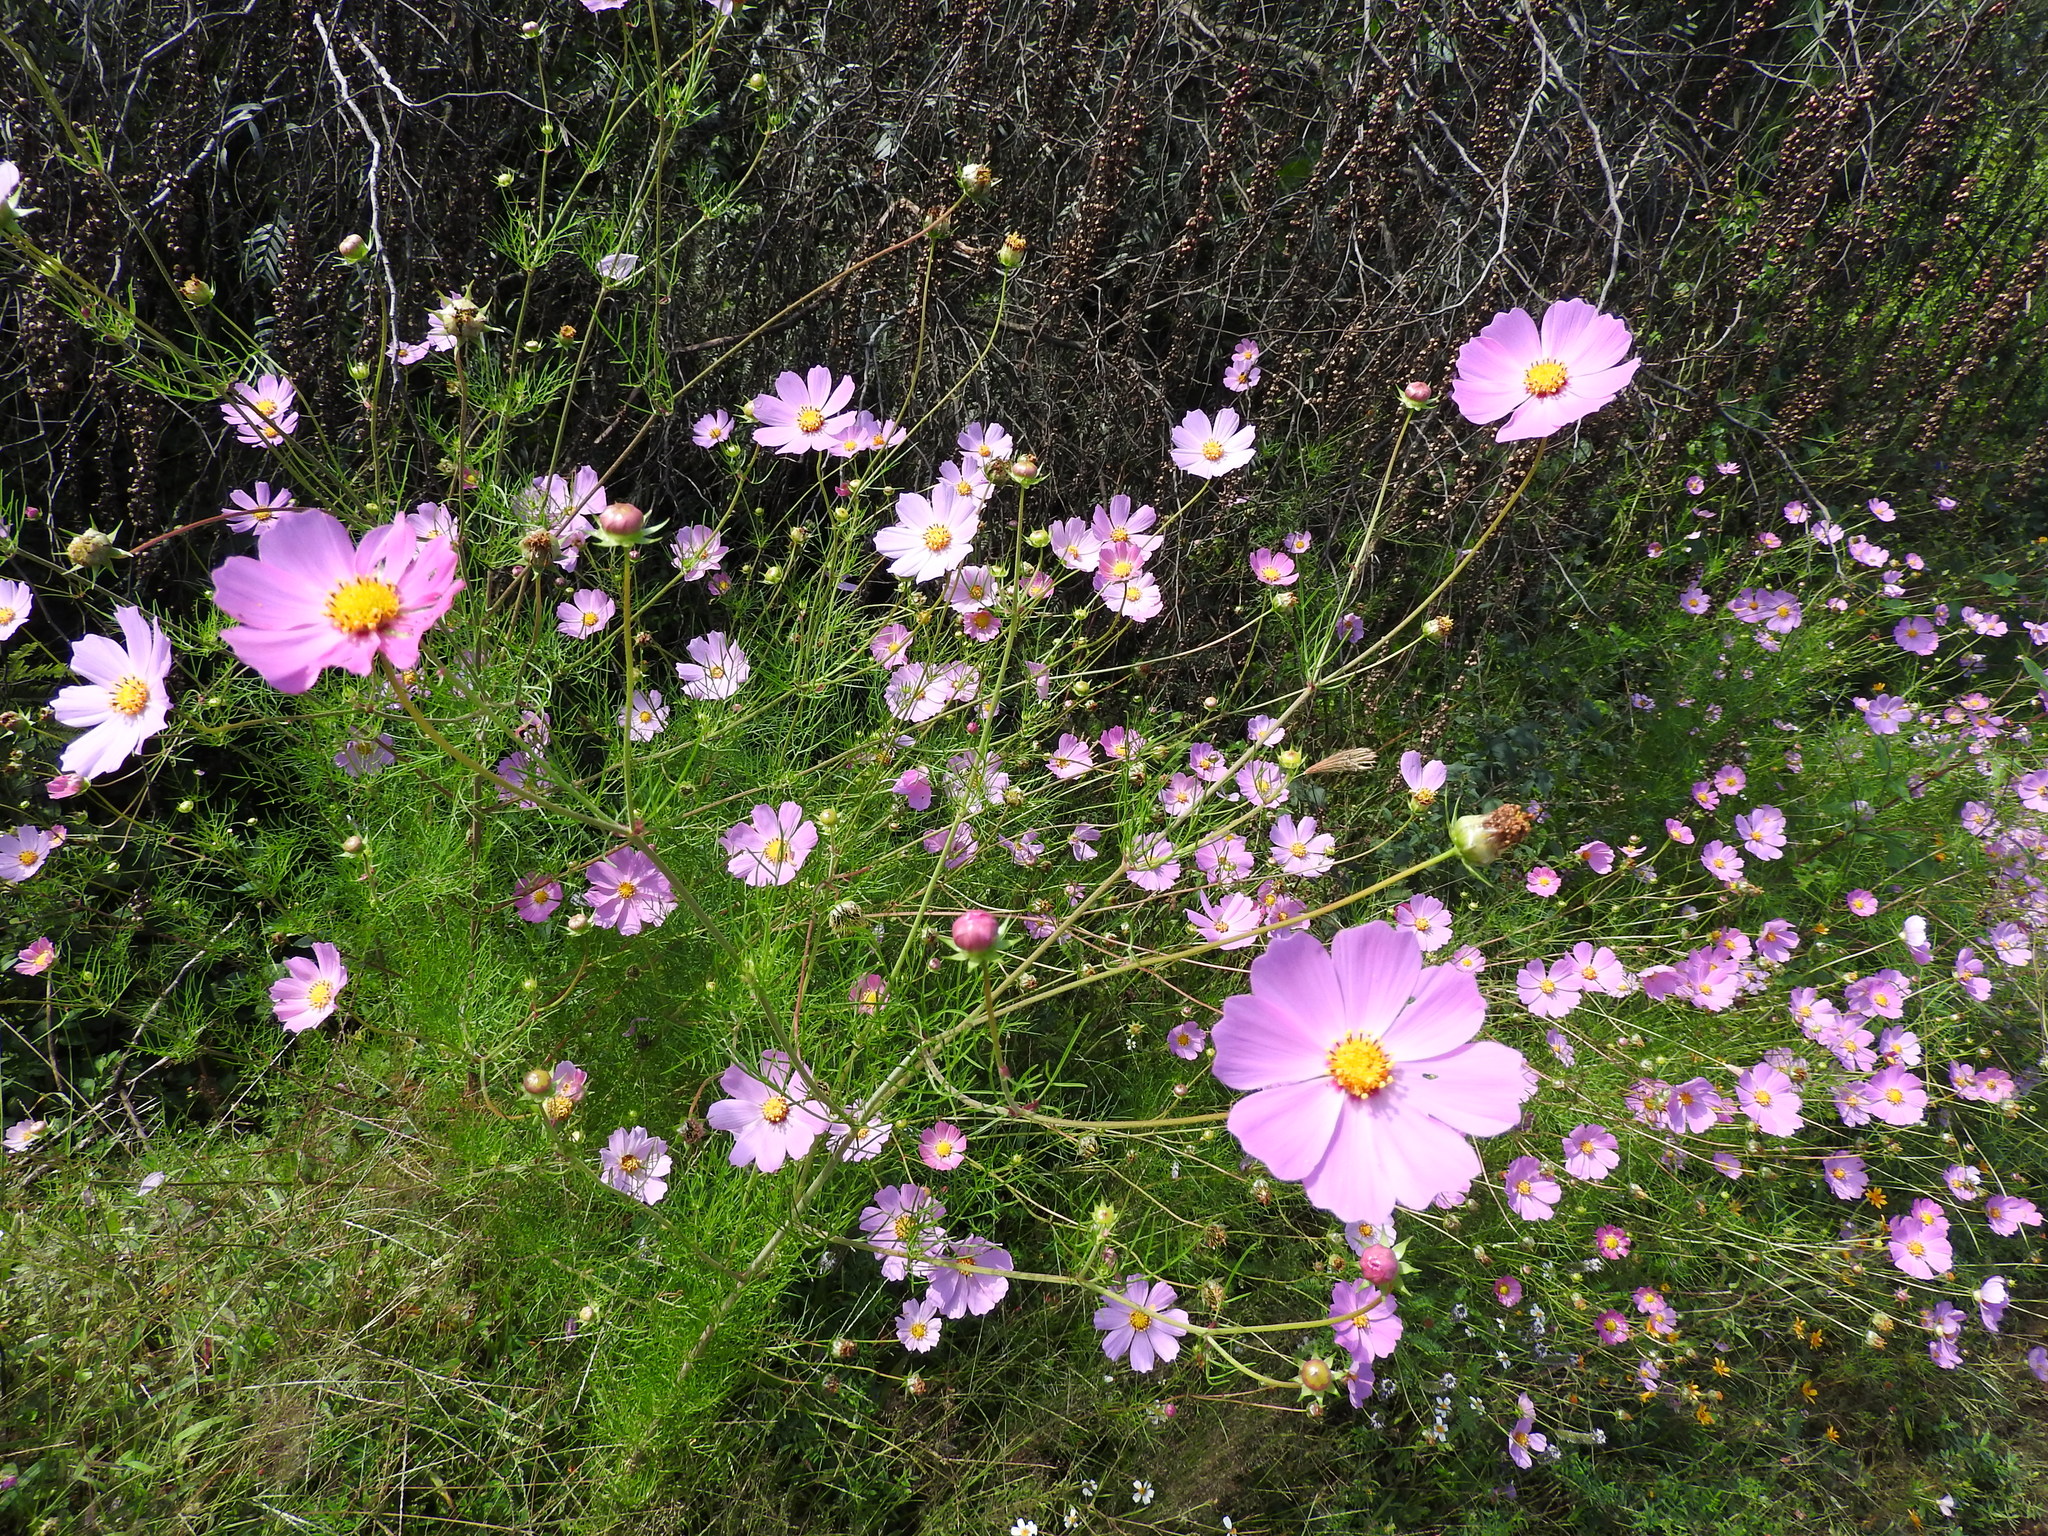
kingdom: Plantae
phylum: Tracheophyta
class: Magnoliopsida
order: Asterales
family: Asteraceae
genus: Cosmos
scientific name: Cosmos bipinnatus
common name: Garden cosmos
